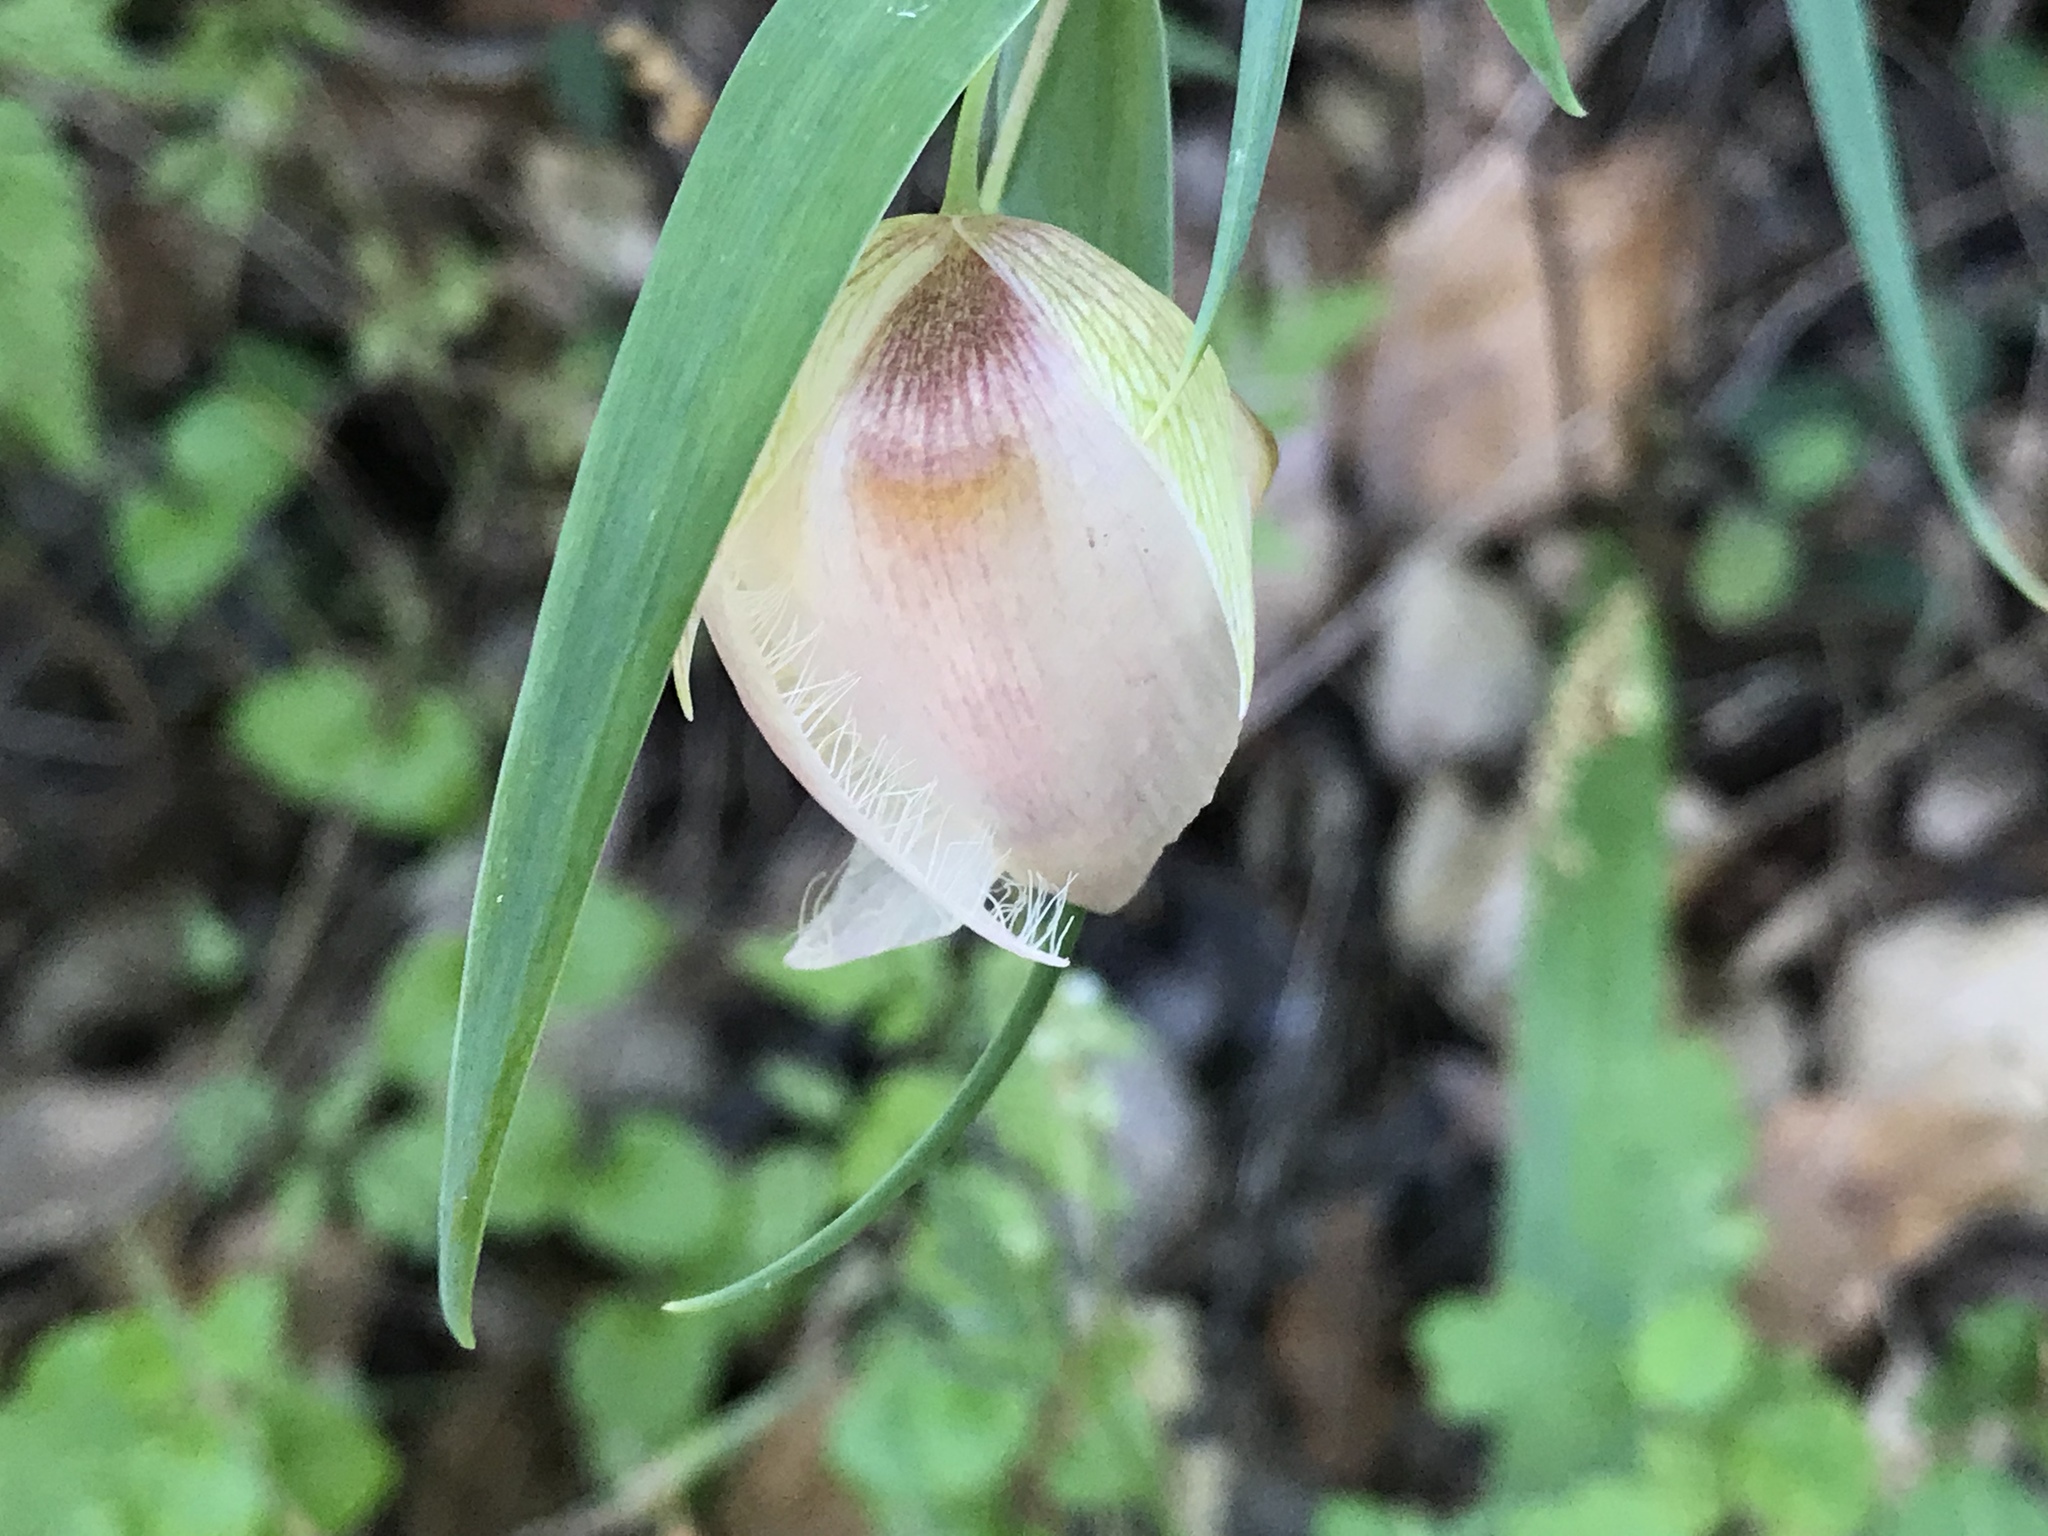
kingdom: Plantae
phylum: Tracheophyta
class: Liliopsida
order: Liliales
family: Liliaceae
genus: Calochortus
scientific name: Calochortus albus
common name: Fairy-lantern
